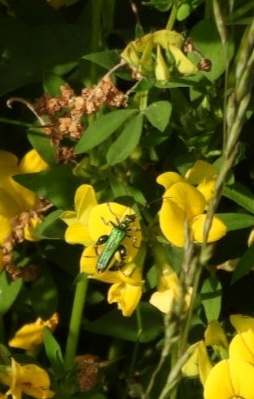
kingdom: Animalia
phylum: Arthropoda
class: Insecta
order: Coleoptera
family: Oedemeridae
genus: Oedemera
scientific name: Oedemera nobilis
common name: Swollen-thighed beetle
